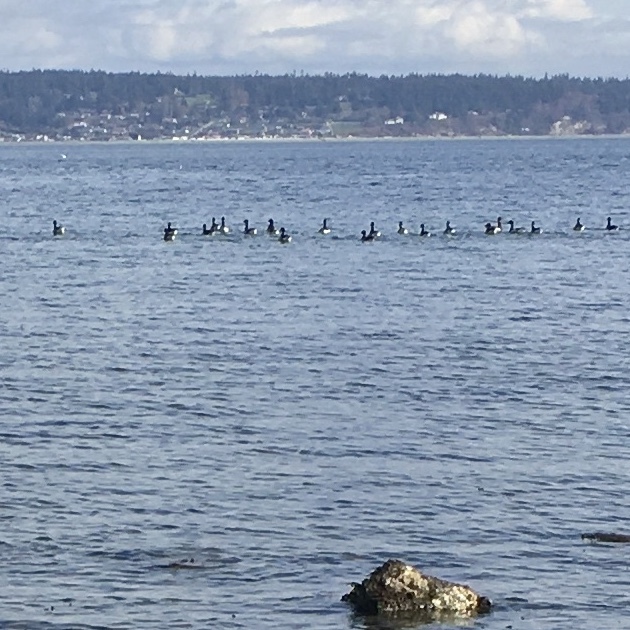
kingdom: Animalia
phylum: Chordata
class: Aves
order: Anseriformes
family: Anatidae
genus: Branta
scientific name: Branta bernicla
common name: Brant goose
